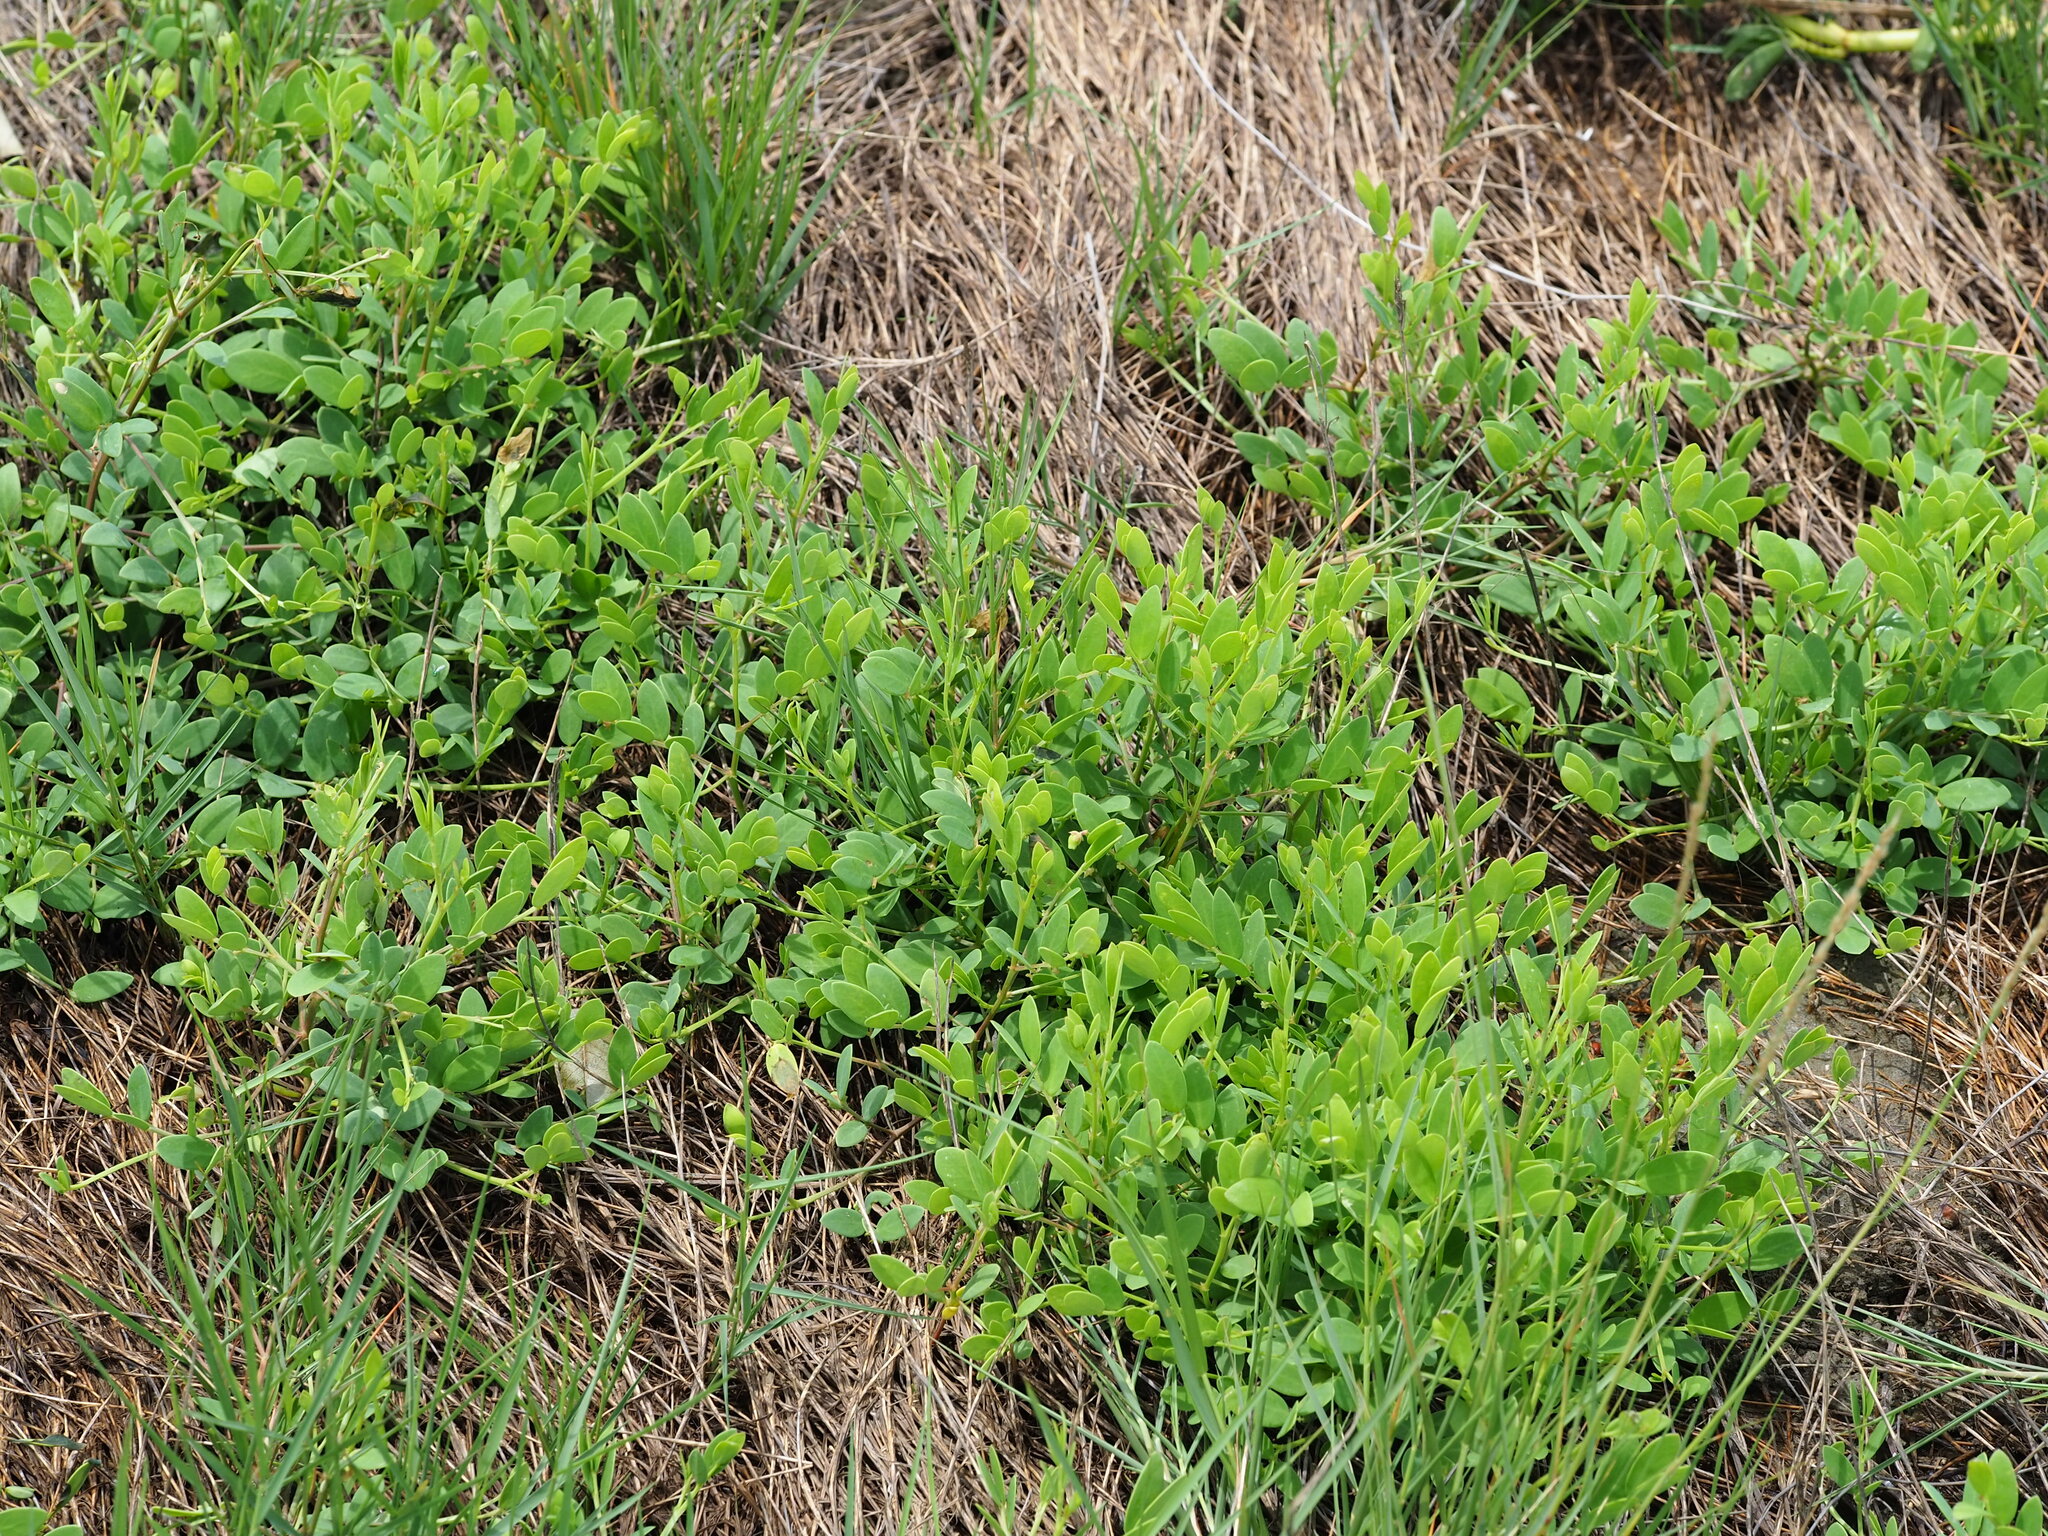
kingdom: Plantae
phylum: Tracheophyta
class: Magnoliopsida
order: Malpighiales
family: Phyllanthaceae
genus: Synostemon
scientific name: Synostemon bacciformis
